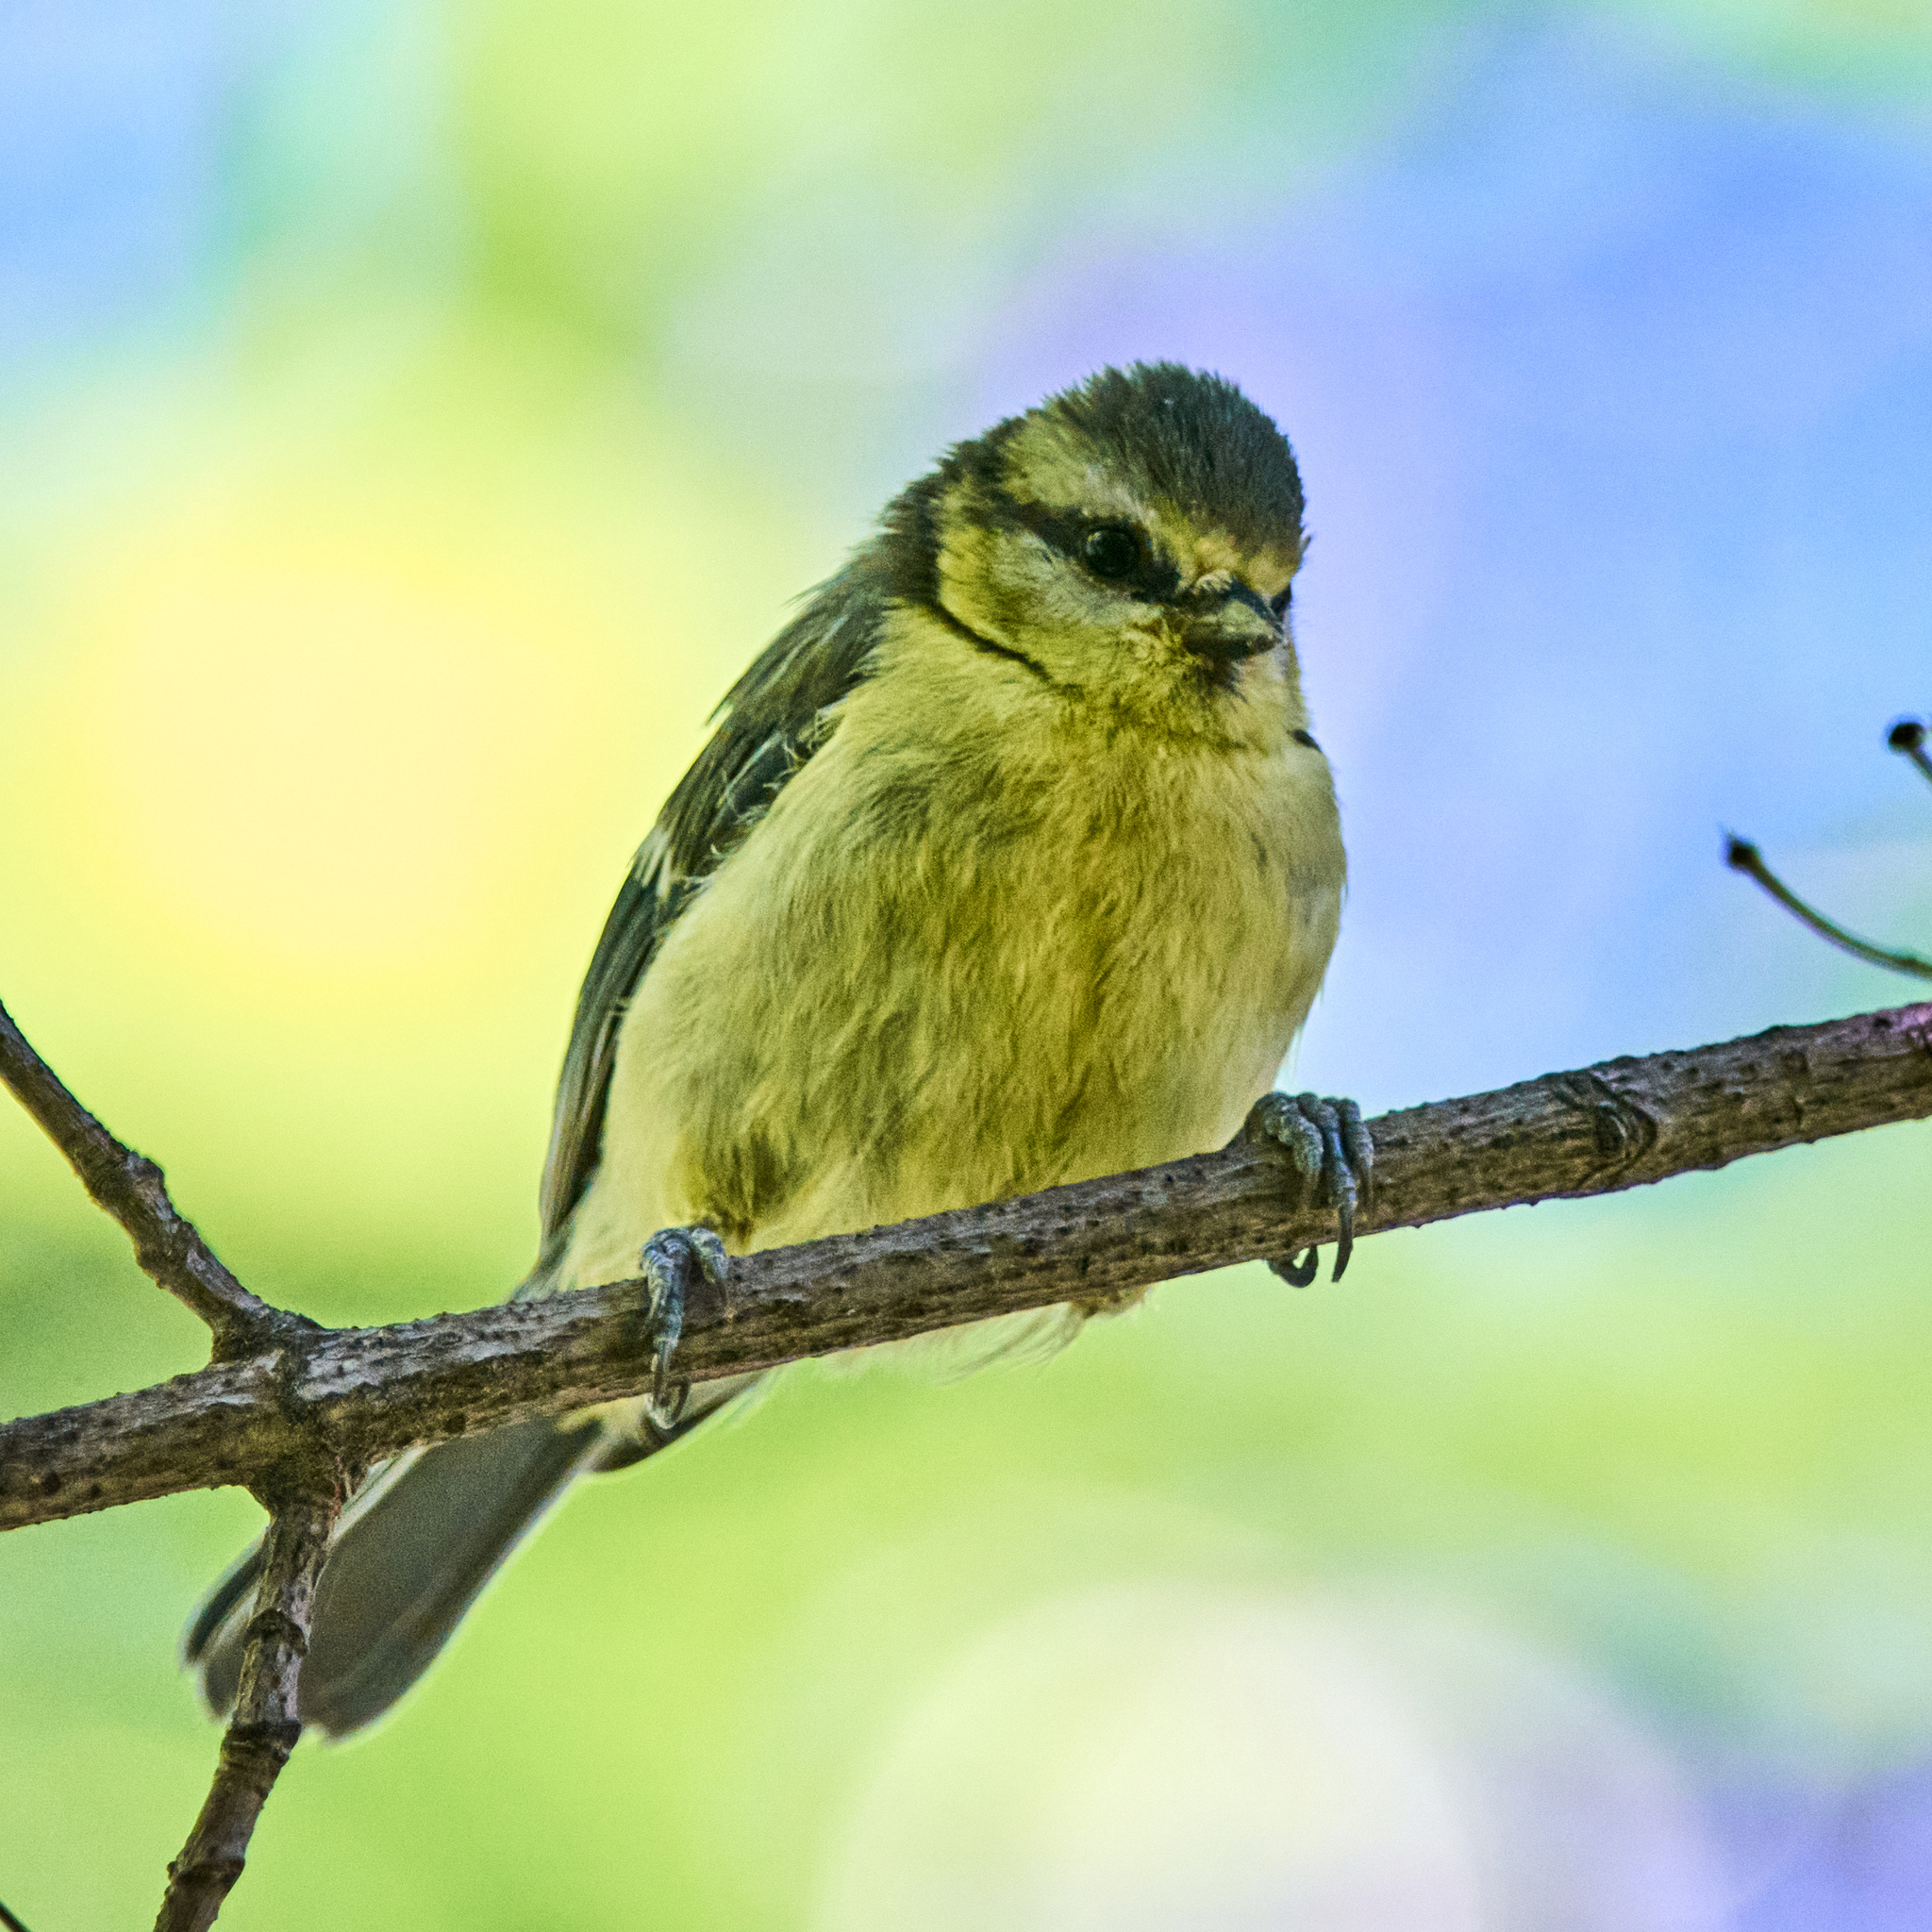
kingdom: Animalia
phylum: Chordata
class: Aves
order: Passeriformes
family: Paridae
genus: Cyanistes
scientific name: Cyanistes caeruleus
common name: Eurasian blue tit
